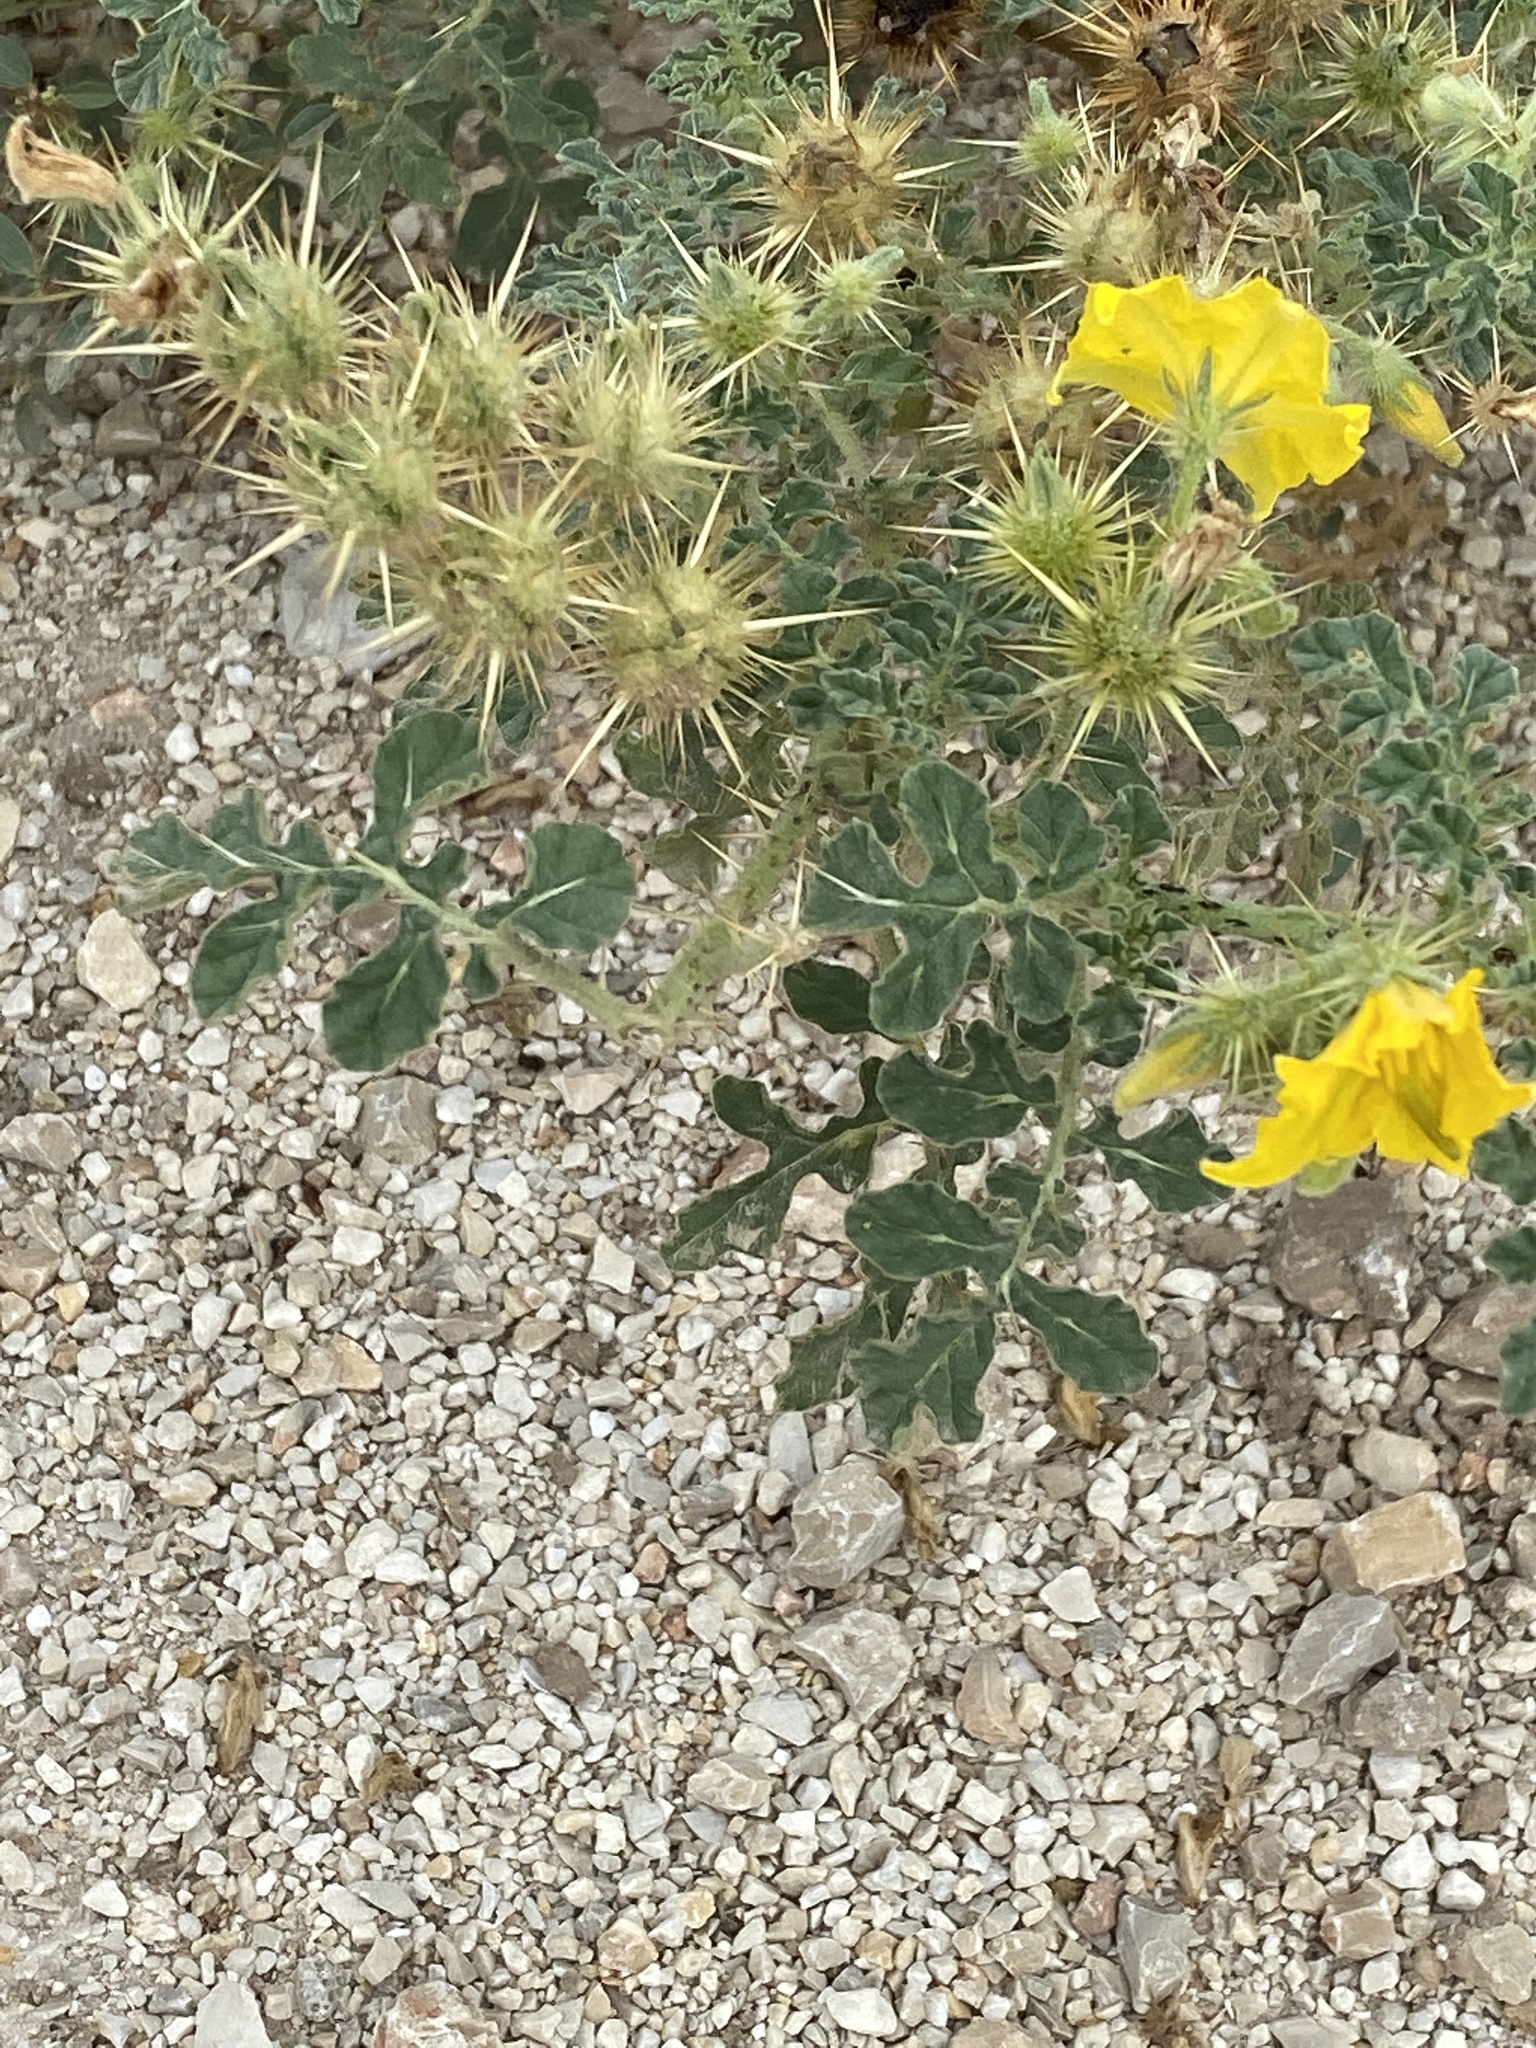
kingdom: Plantae
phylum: Tracheophyta
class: Magnoliopsida
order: Solanales
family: Solanaceae
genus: Solanum
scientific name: Solanum angustifolium
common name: Buffalobur nightshade
